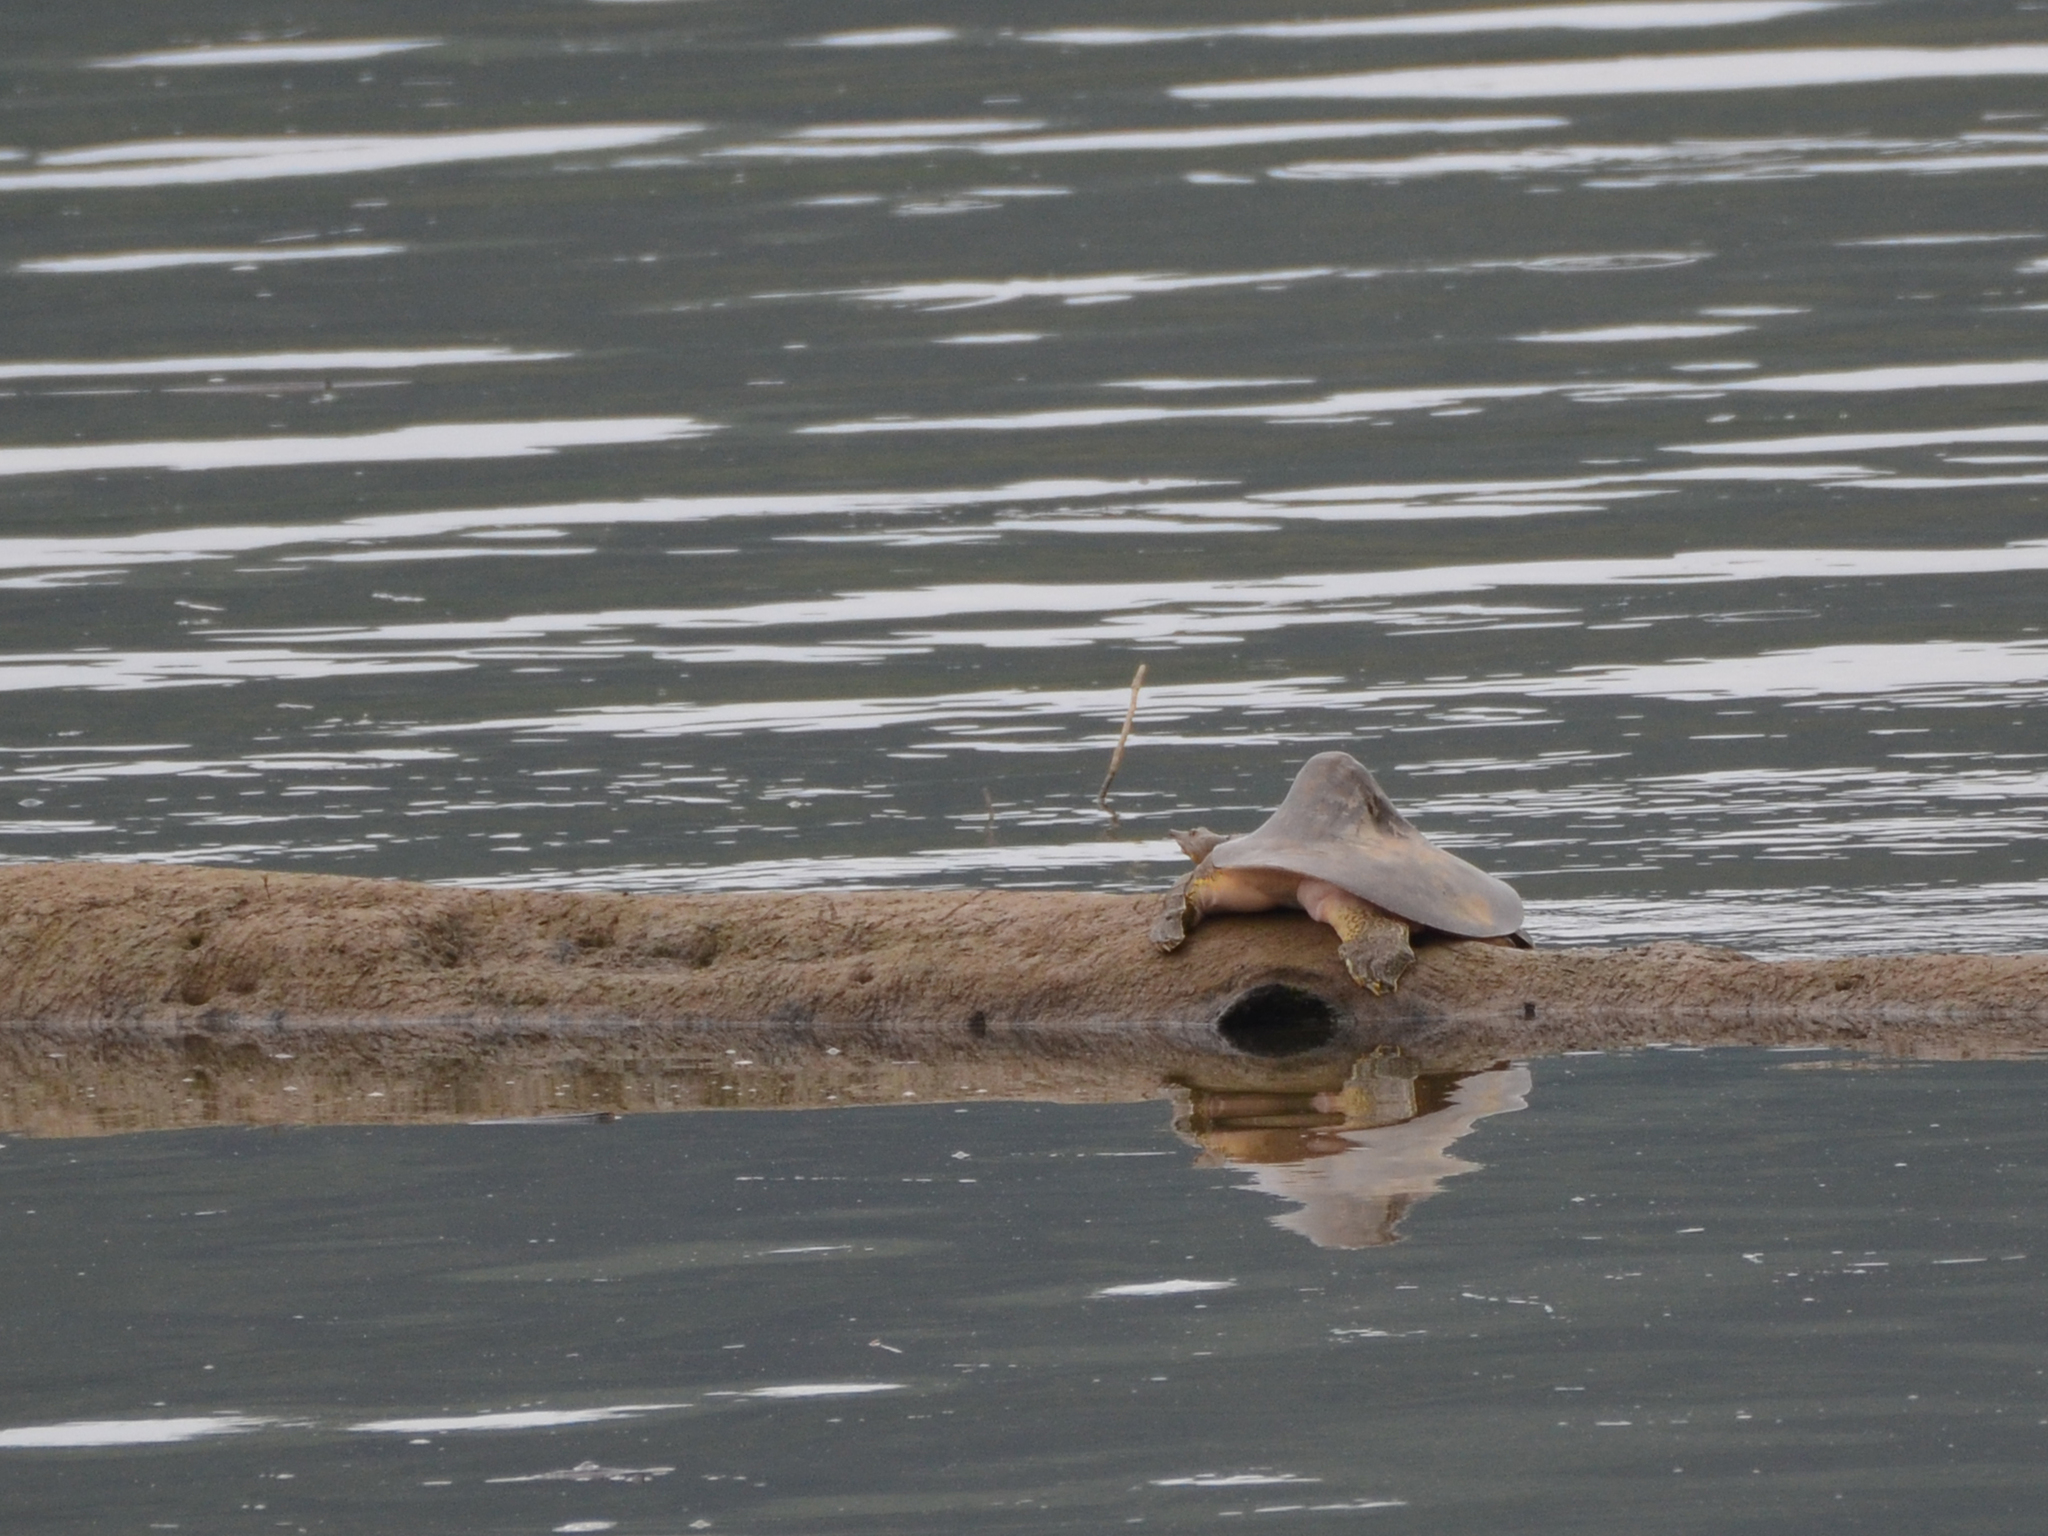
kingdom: Animalia
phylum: Chordata
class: Testudines
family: Trionychidae
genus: Apalone
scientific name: Apalone spinifera
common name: Spiny softshell turtle
